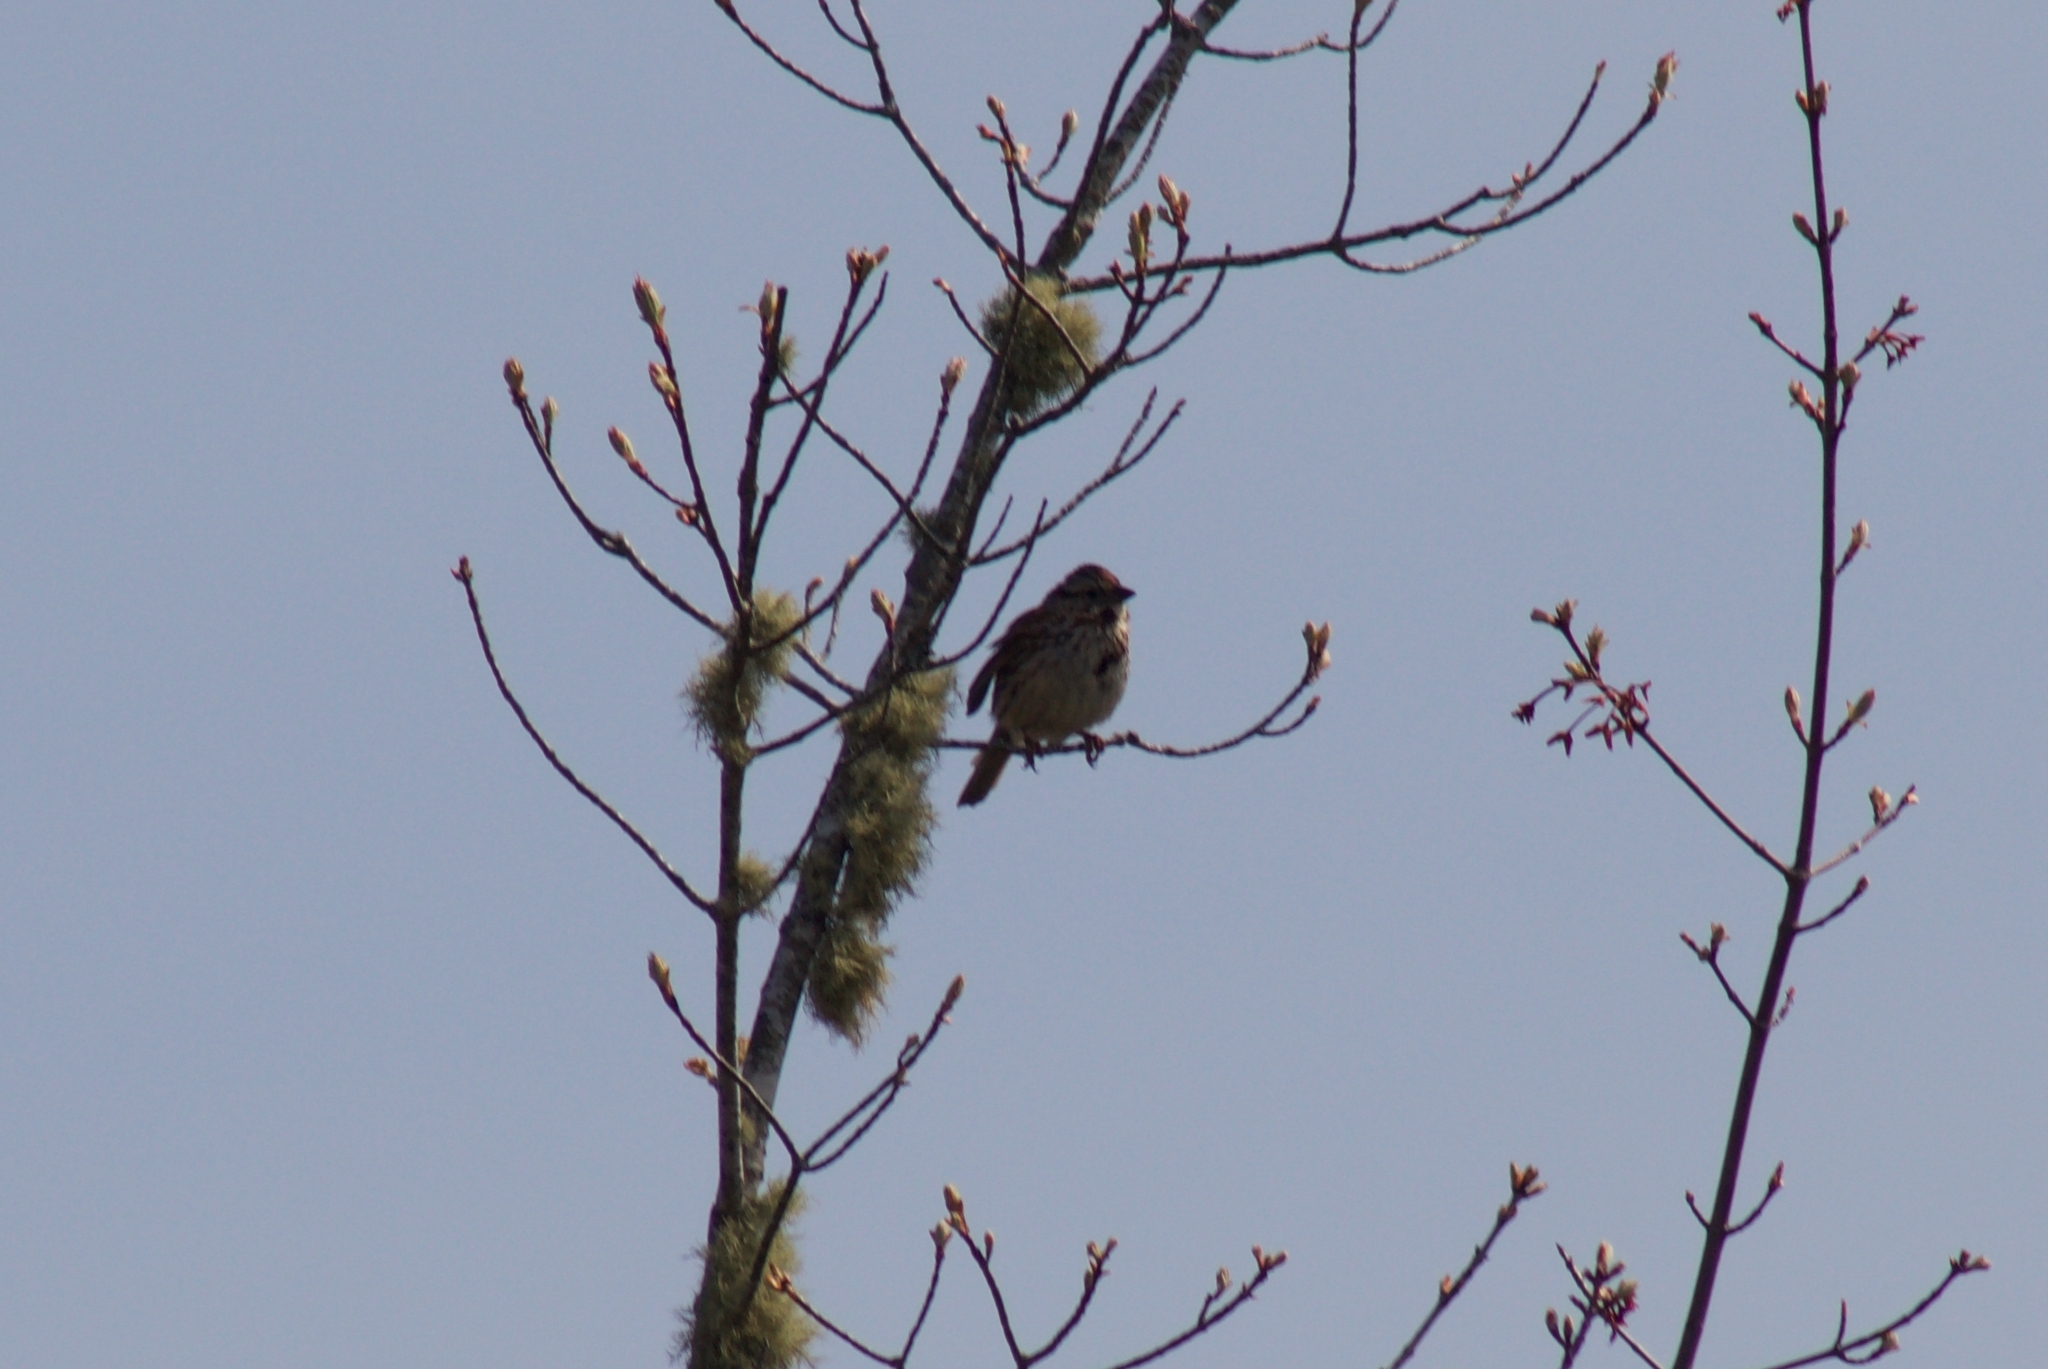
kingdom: Animalia
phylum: Chordata
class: Aves
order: Passeriformes
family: Passerellidae
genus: Melospiza
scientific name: Melospiza melodia
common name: Song sparrow
